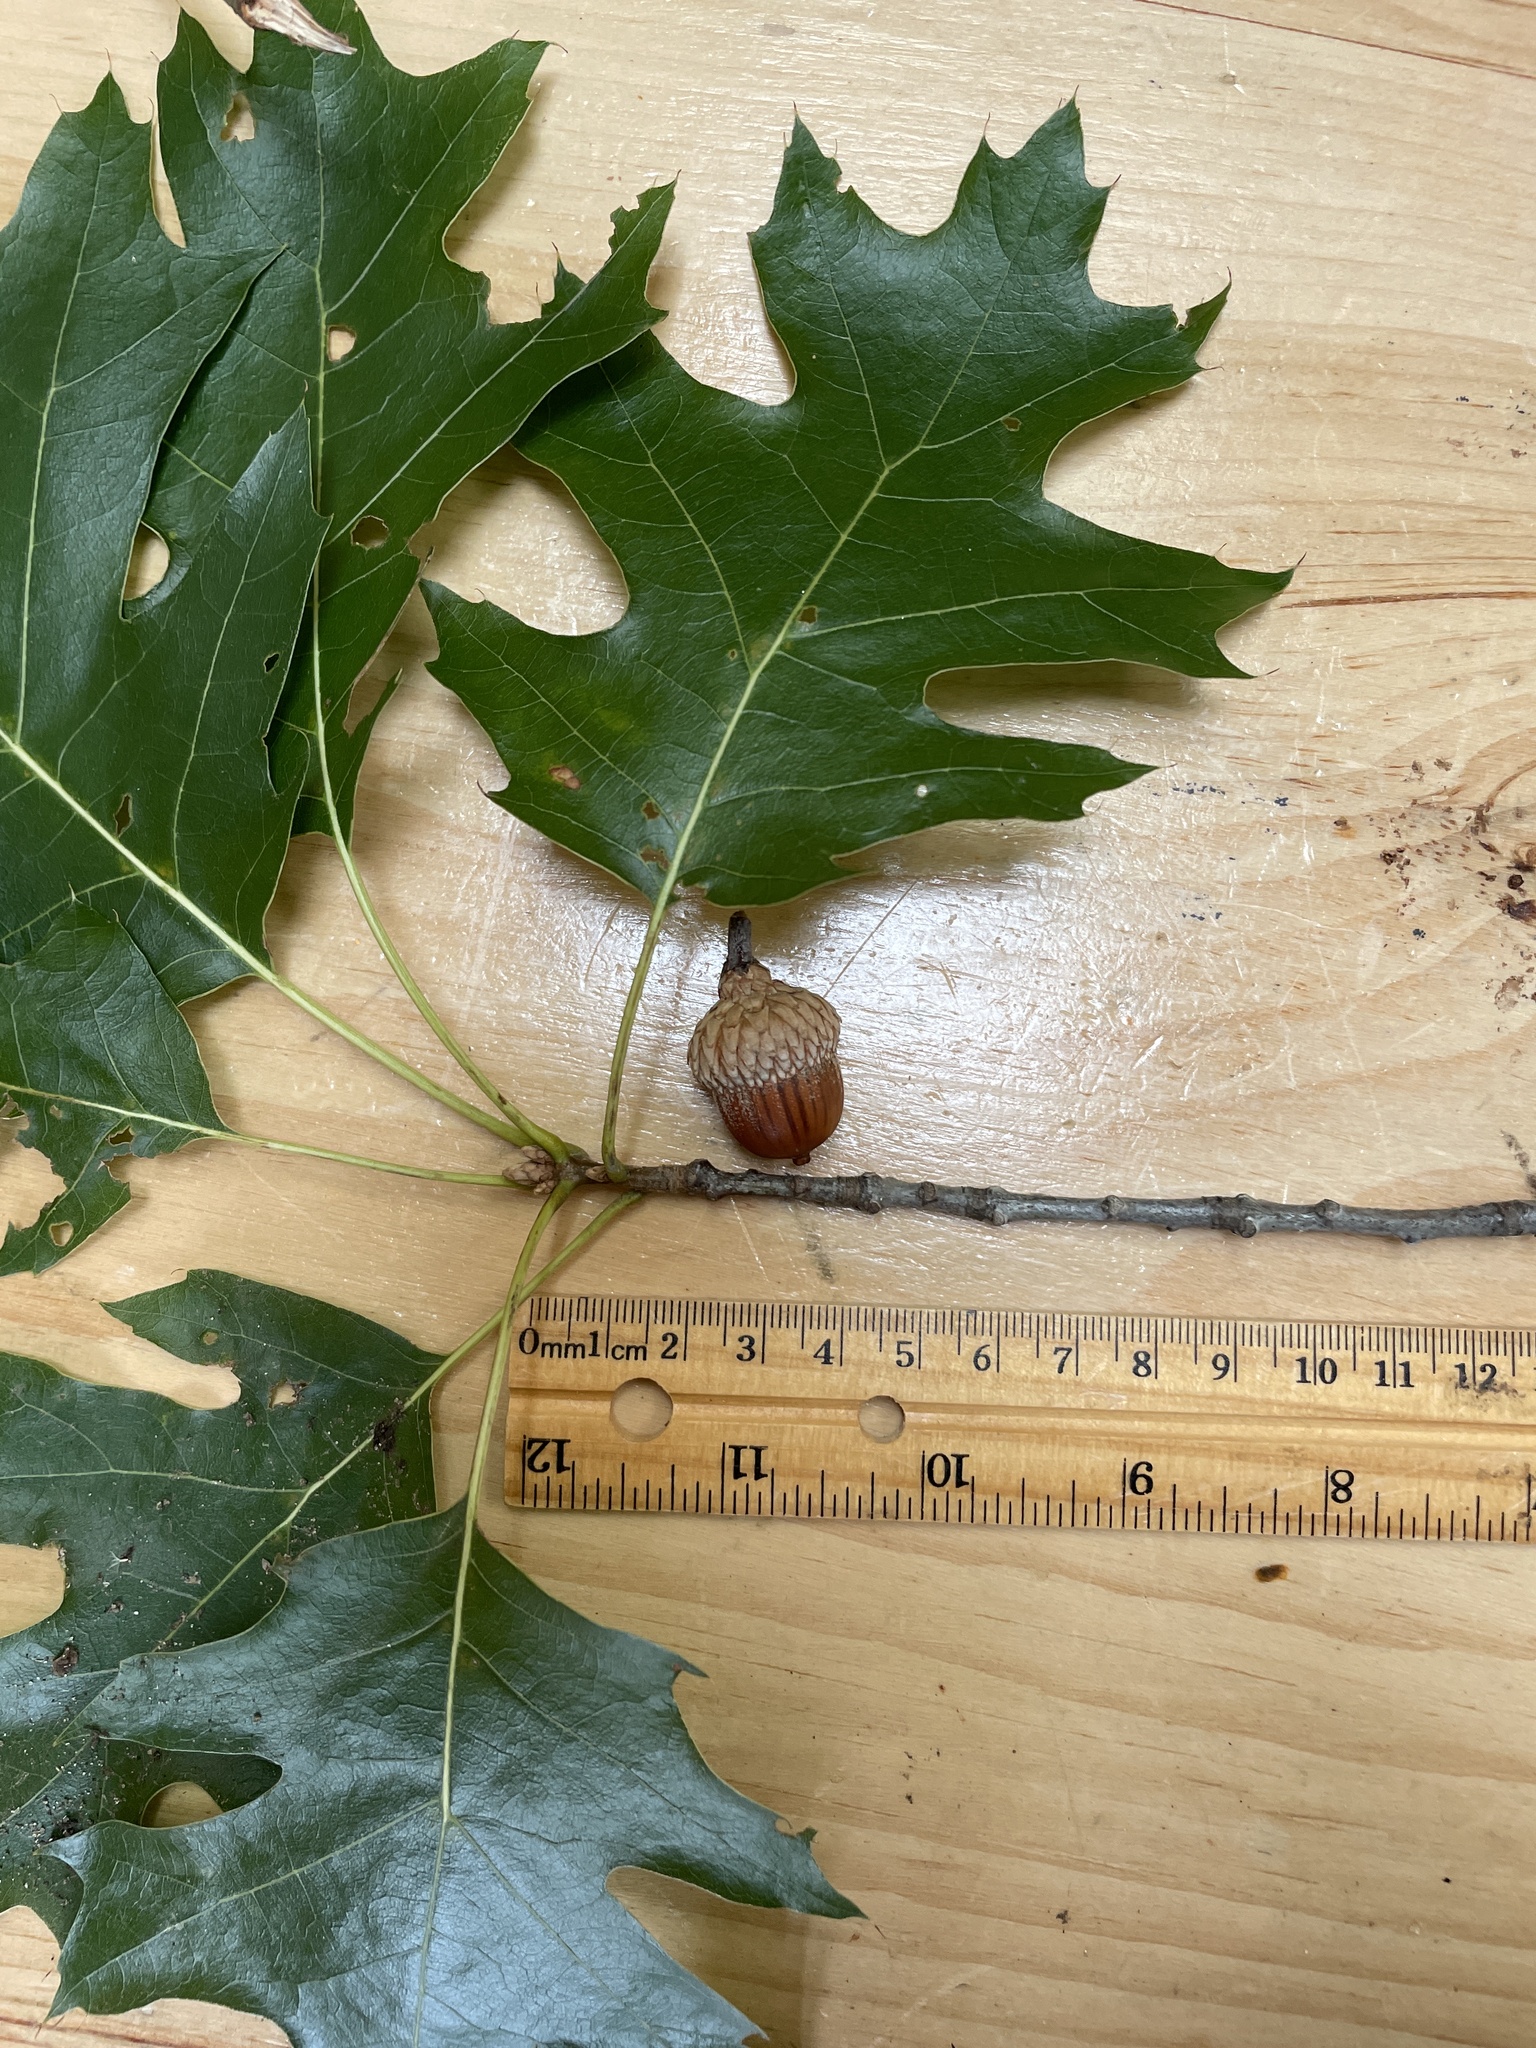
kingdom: Plantae
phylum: Tracheophyta
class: Magnoliopsida
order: Fagales
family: Fagaceae
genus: Quercus
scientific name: Quercus velutina
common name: Black oak
